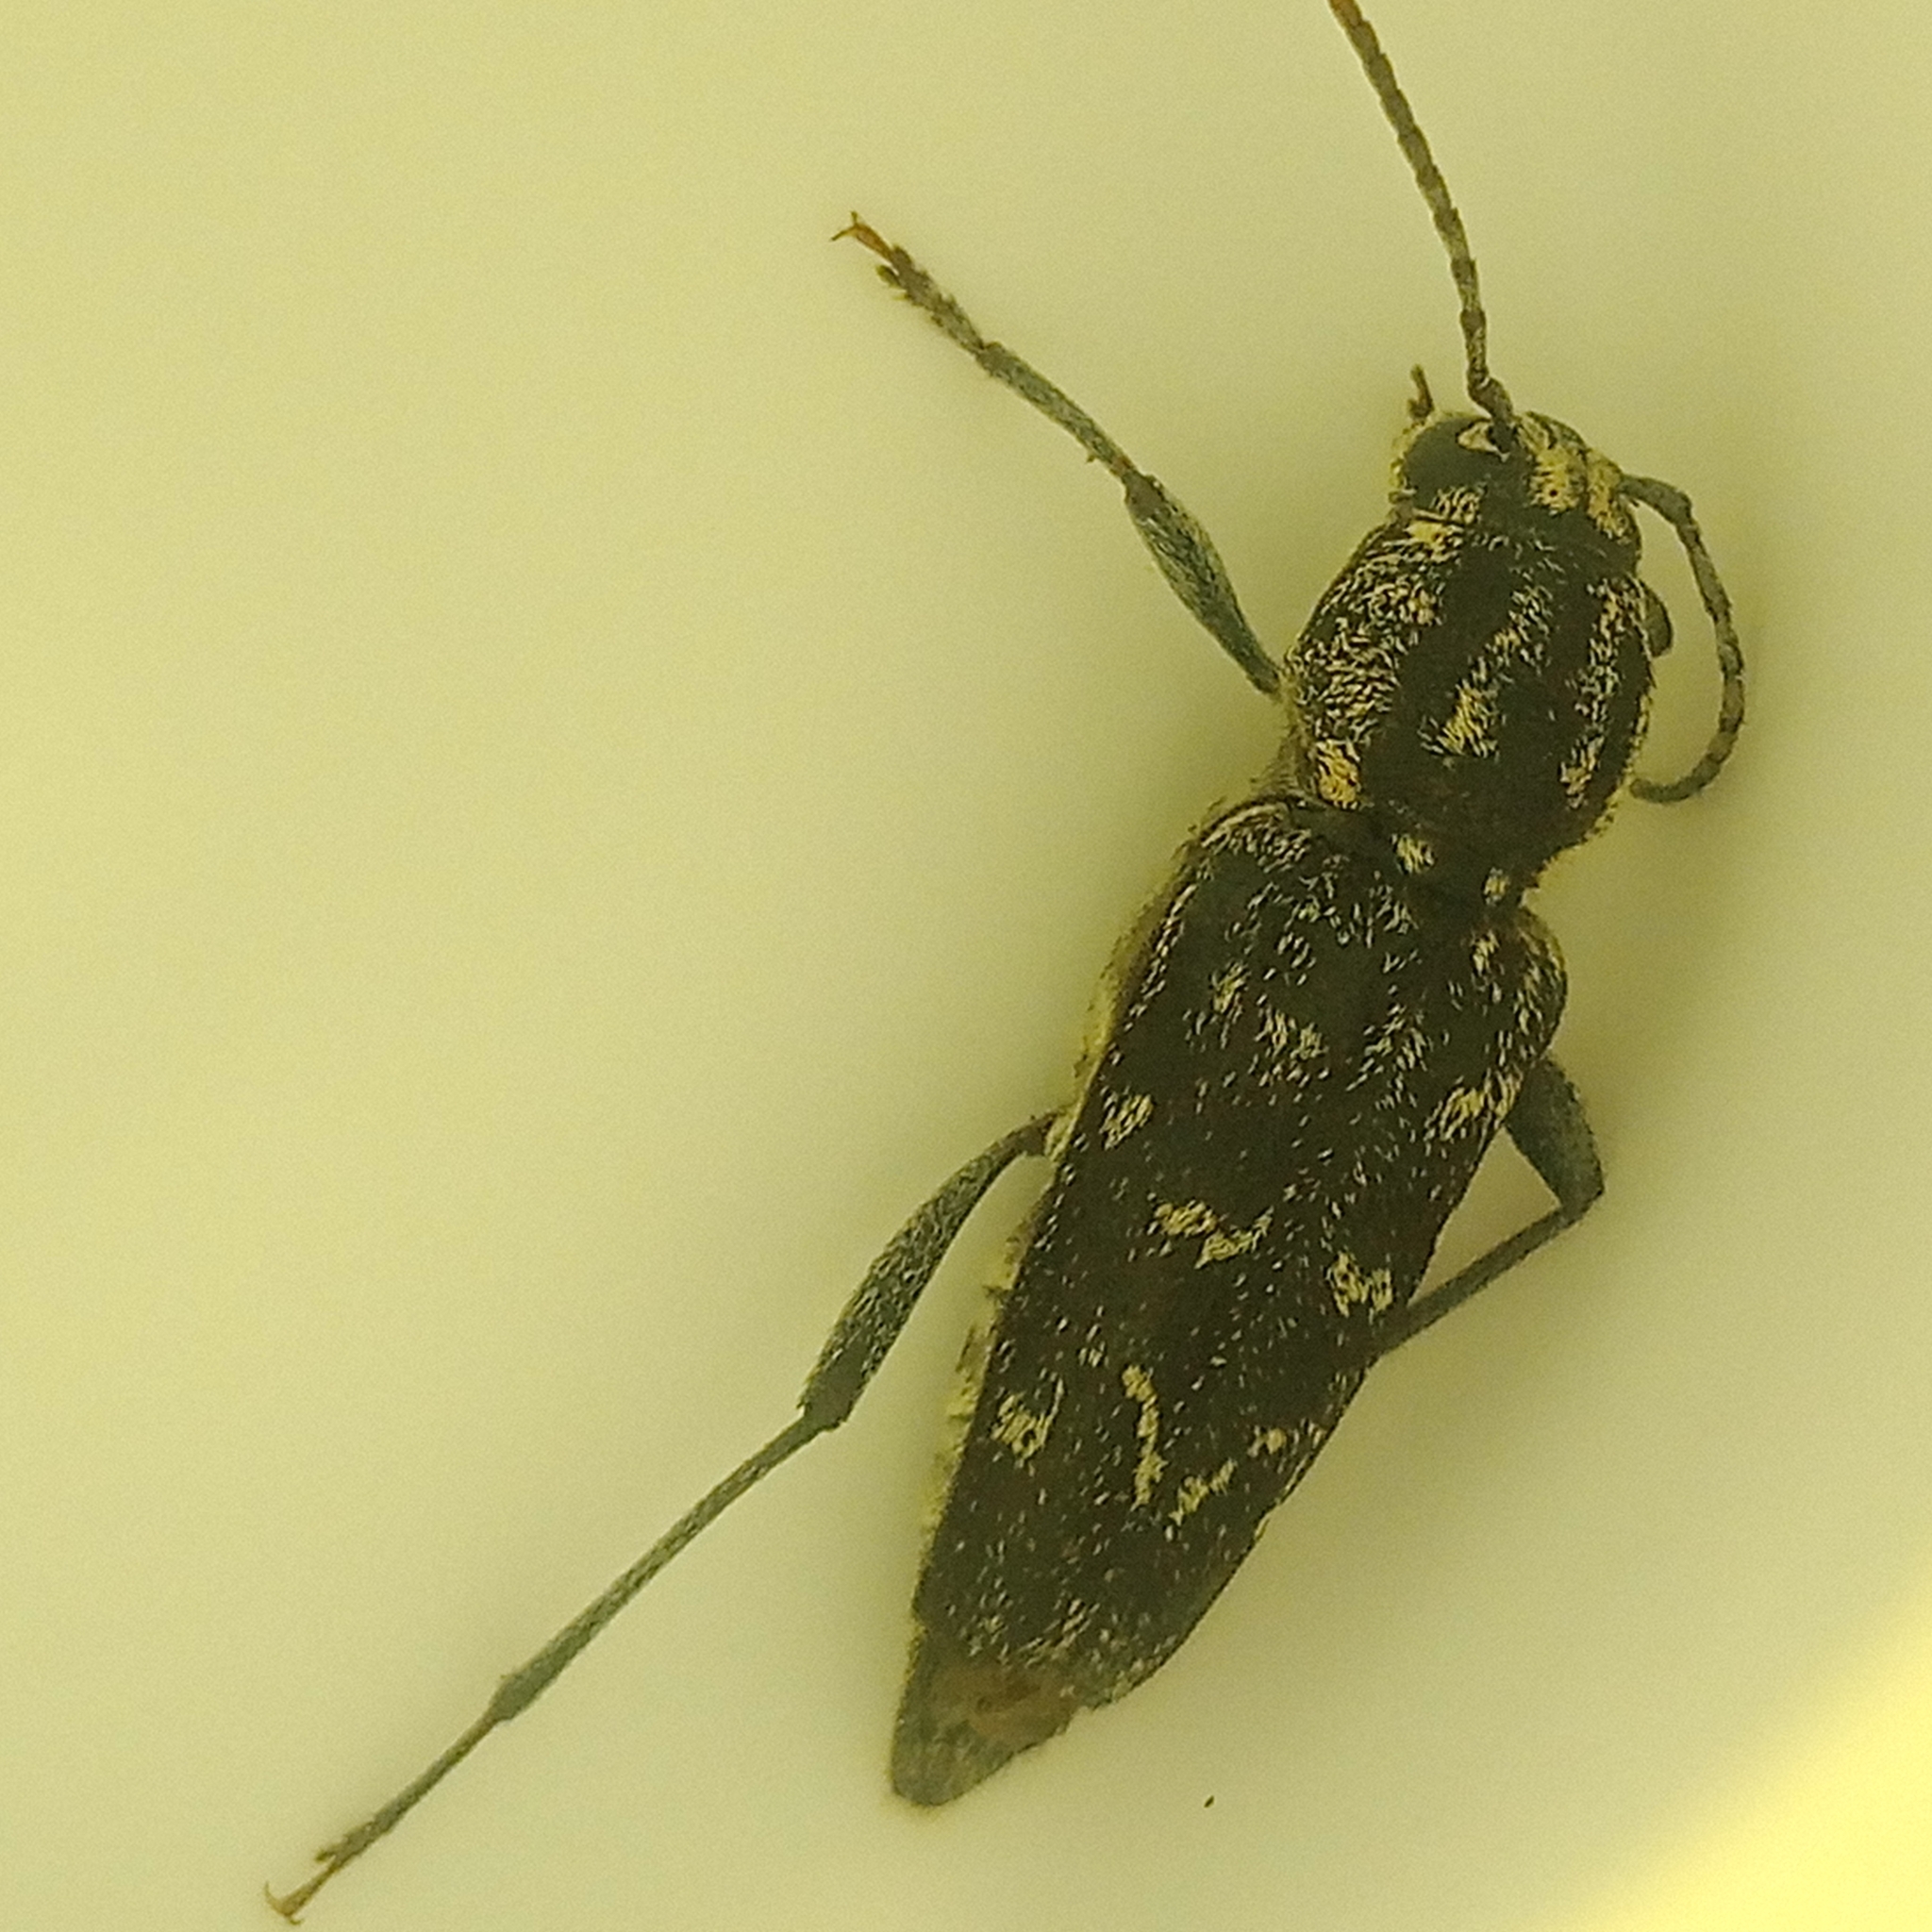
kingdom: Animalia
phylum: Arthropoda
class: Insecta
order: Coleoptera
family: Cerambycidae
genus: Xylotrechus
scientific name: Xylotrechus rusticus
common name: Grey tiger long-horned beetle
